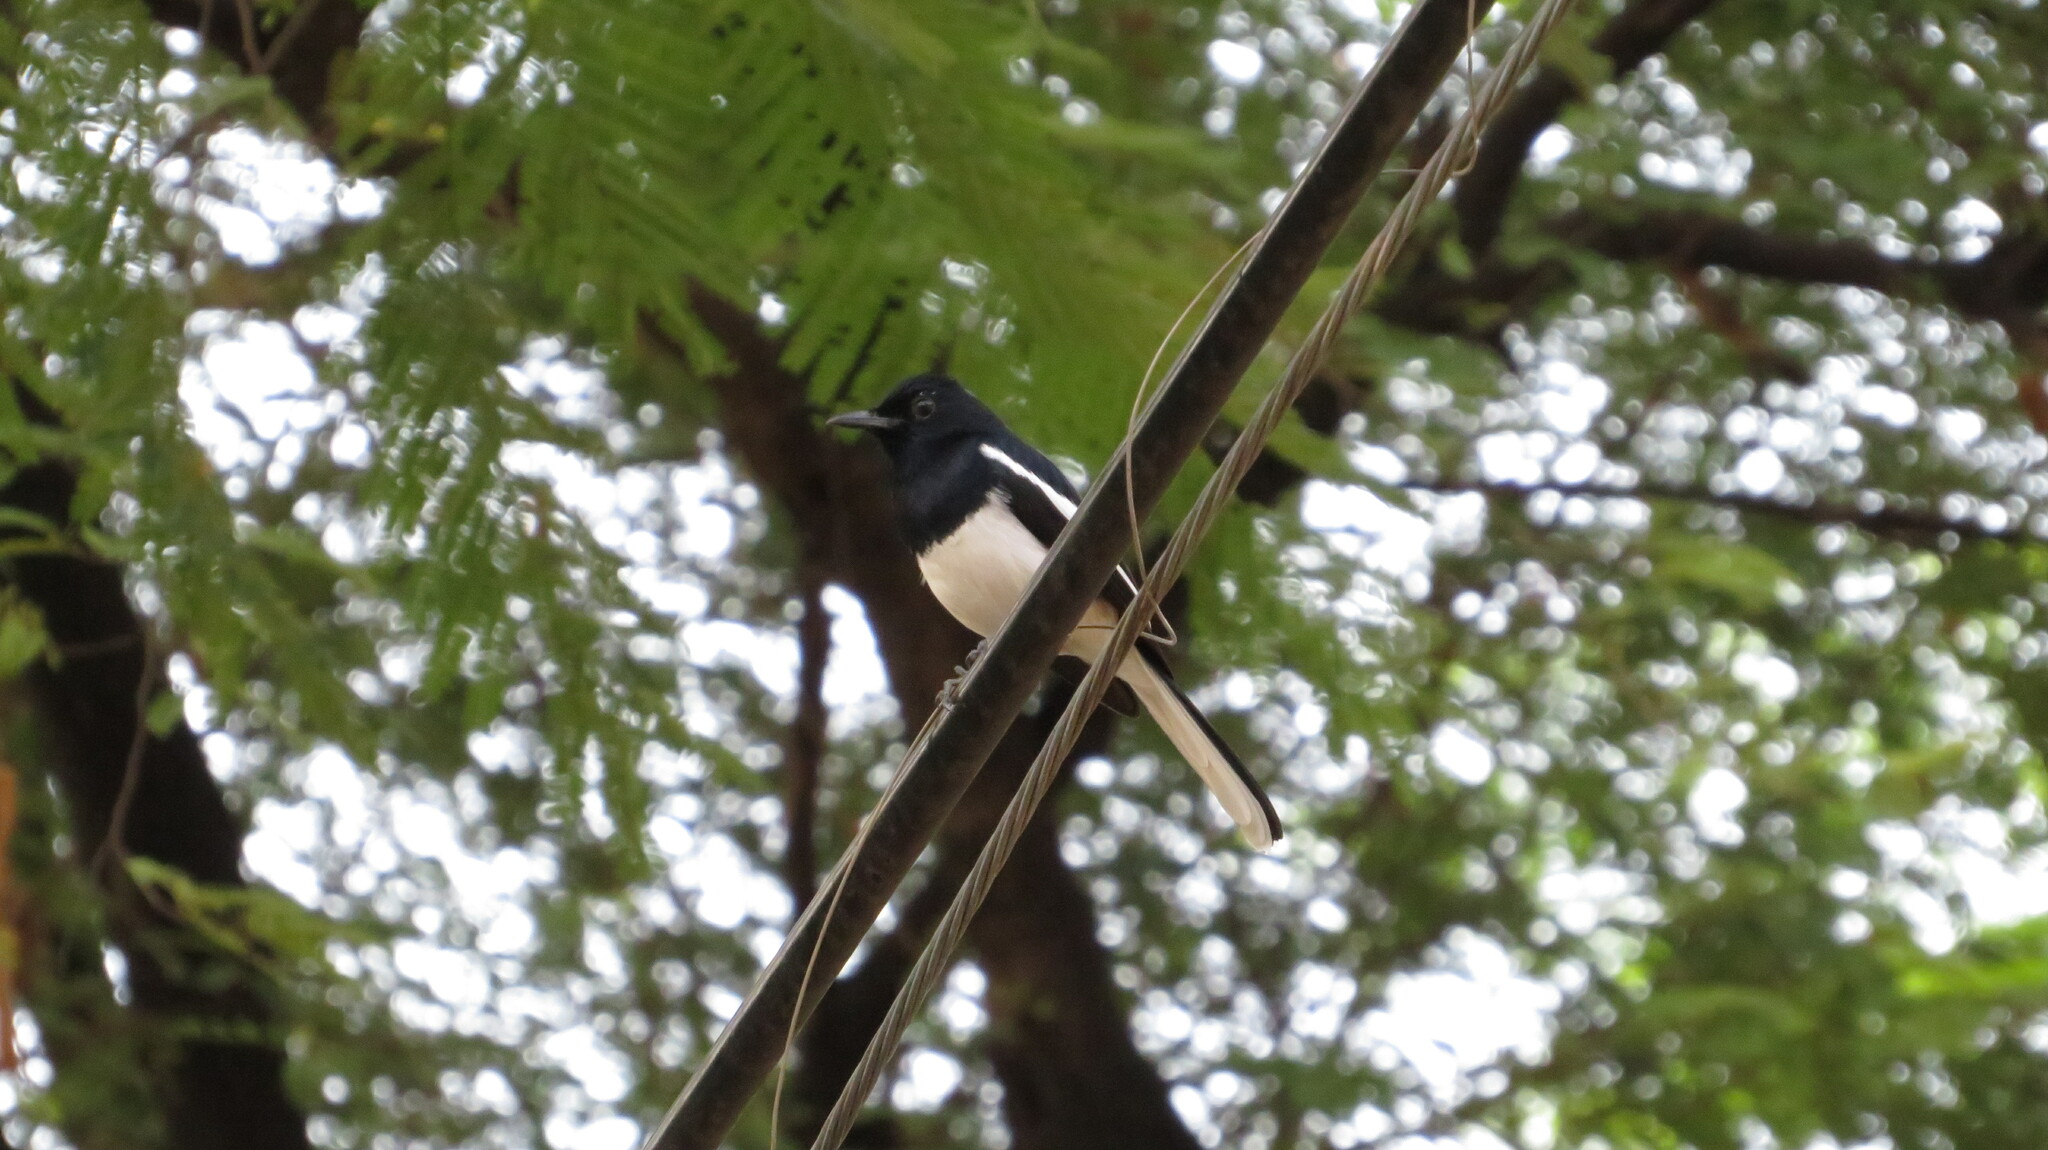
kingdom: Animalia
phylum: Chordata
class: Aves
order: Passeriformes
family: Muscicapidae
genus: Copsychus
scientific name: Copsychus saularis
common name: Oriental magpie-robin
